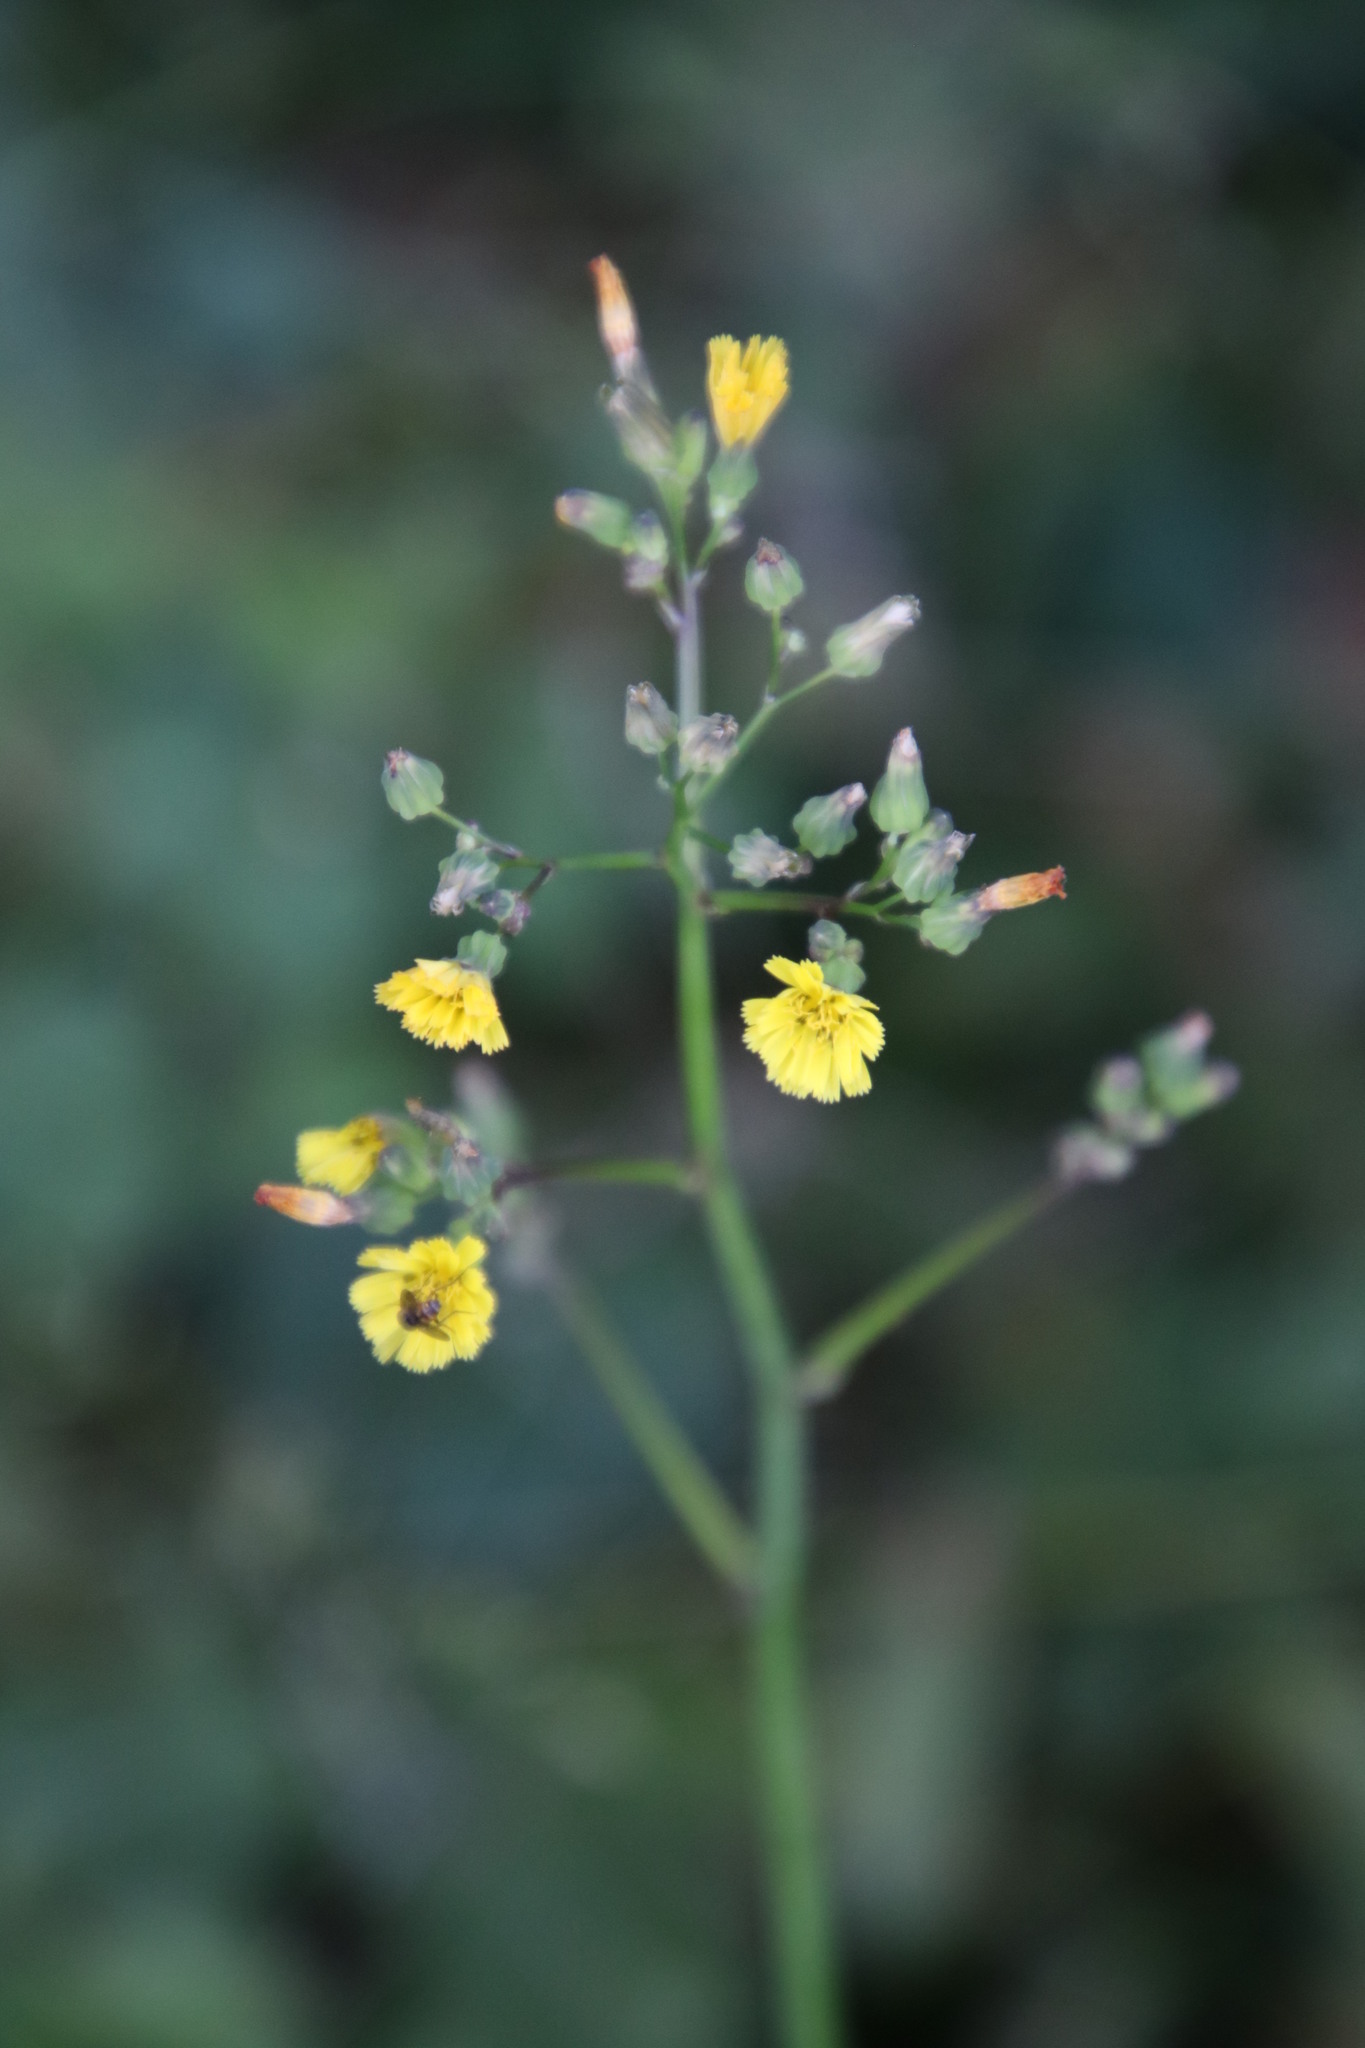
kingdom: Plantae
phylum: Tracheophyta
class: Magnoliopsida
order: Asterales
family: Asteraceae
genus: Youngia
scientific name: Youngia japonica
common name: Oriental false hawksbeard
